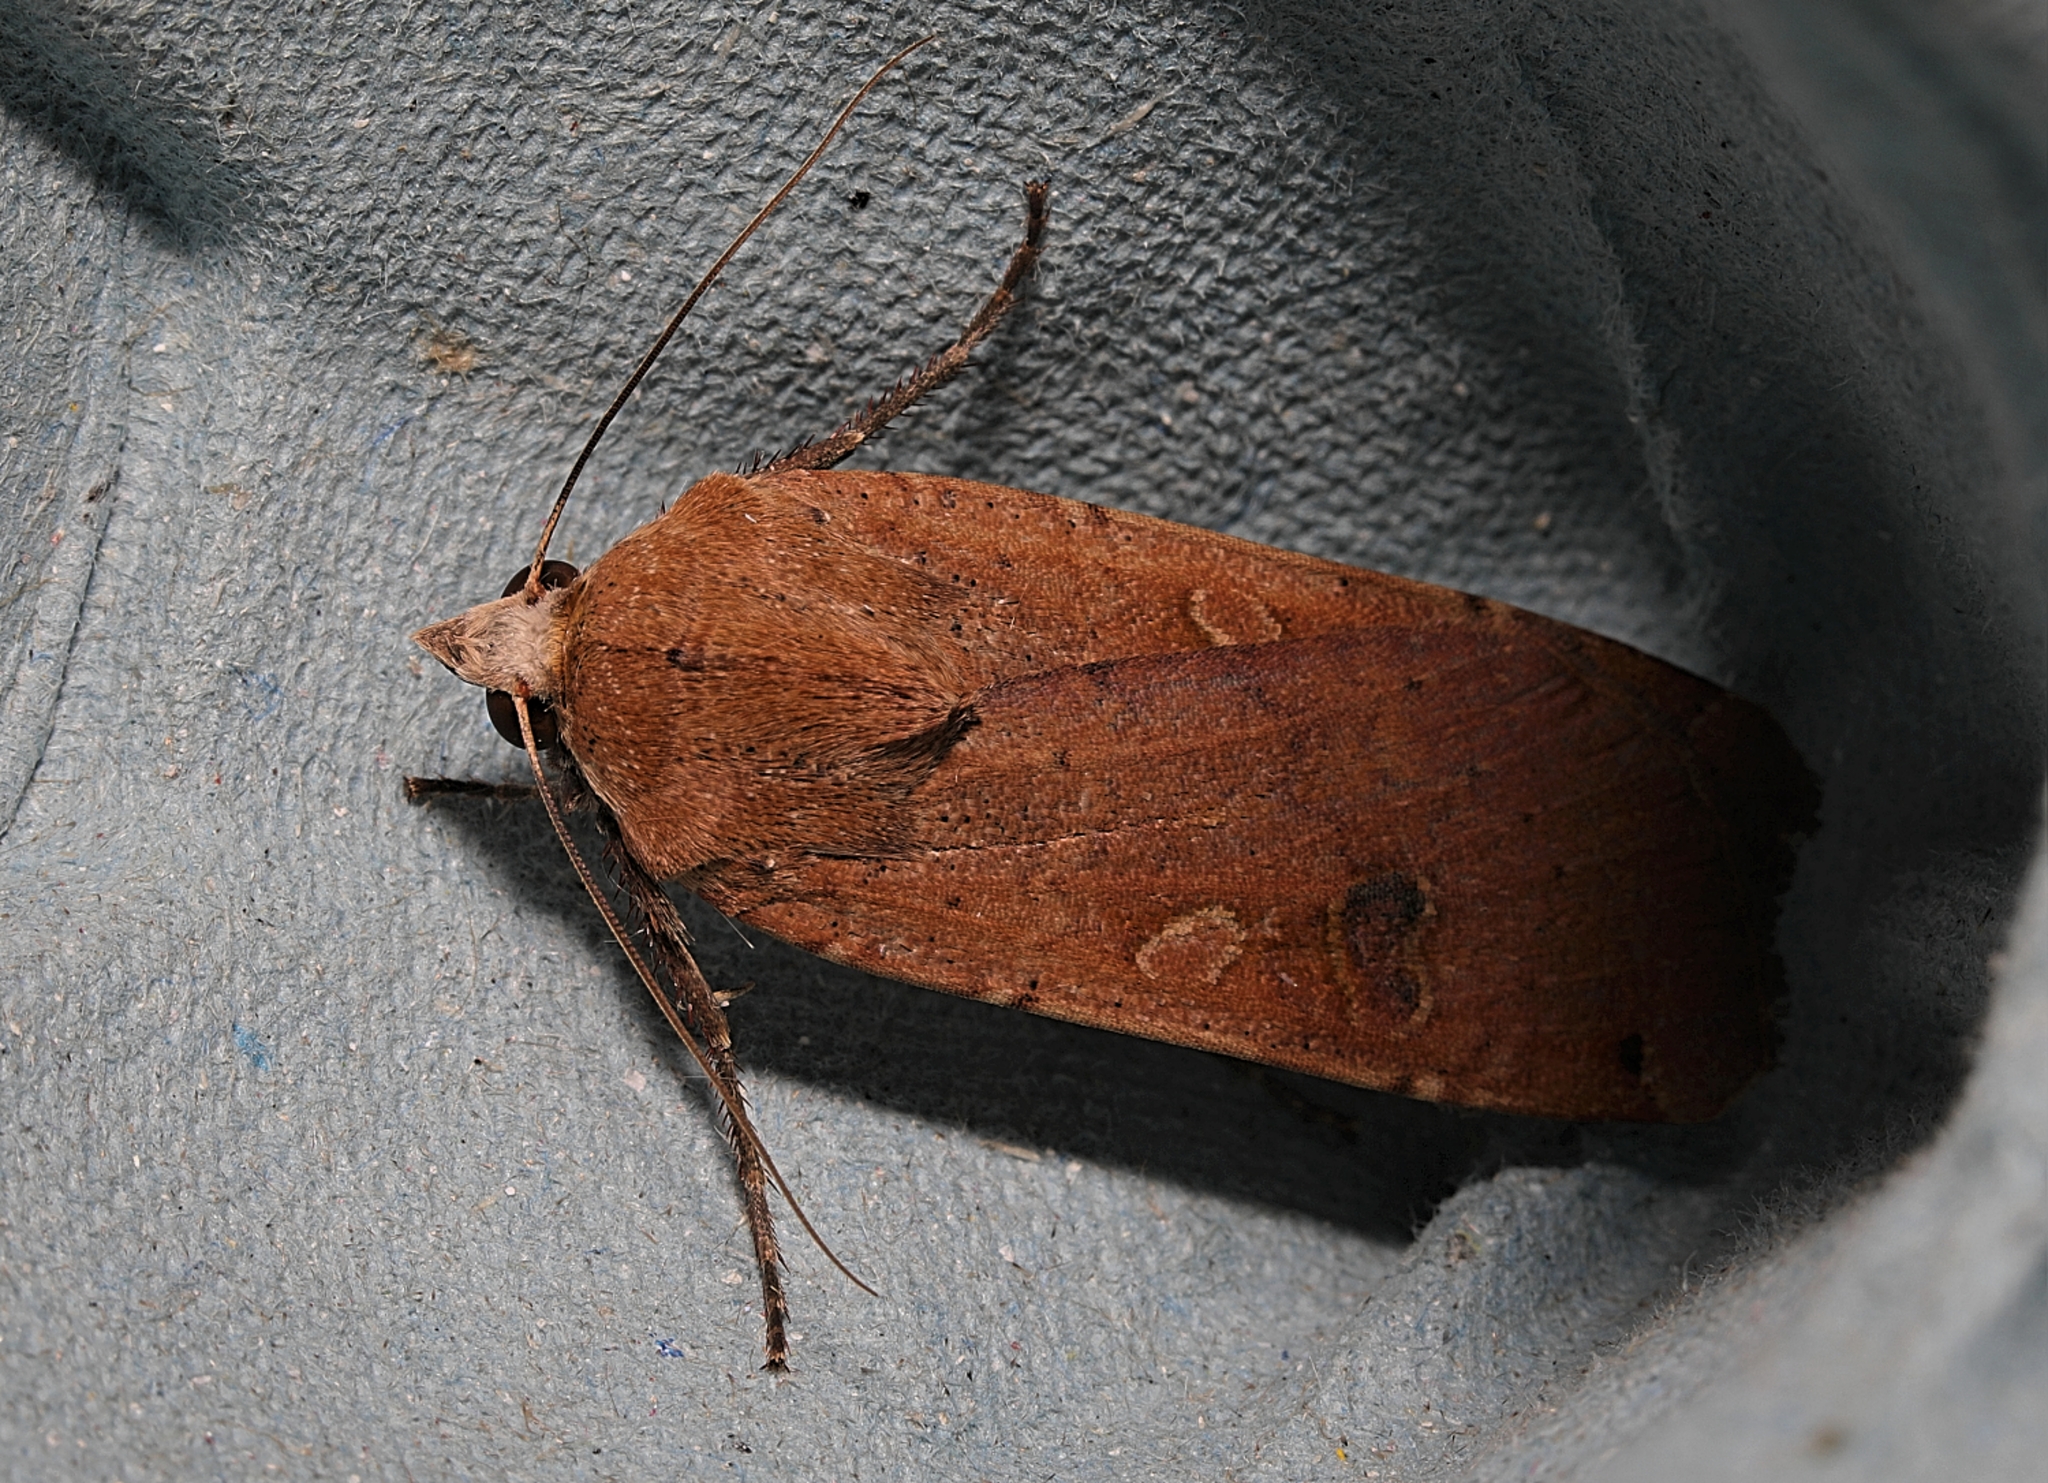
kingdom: Animalia
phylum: Arthropoda
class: Insecta
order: Lepidoptera
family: Noctuidae
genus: Noctua
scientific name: Noctua pronuba
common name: Large yellow underwing
